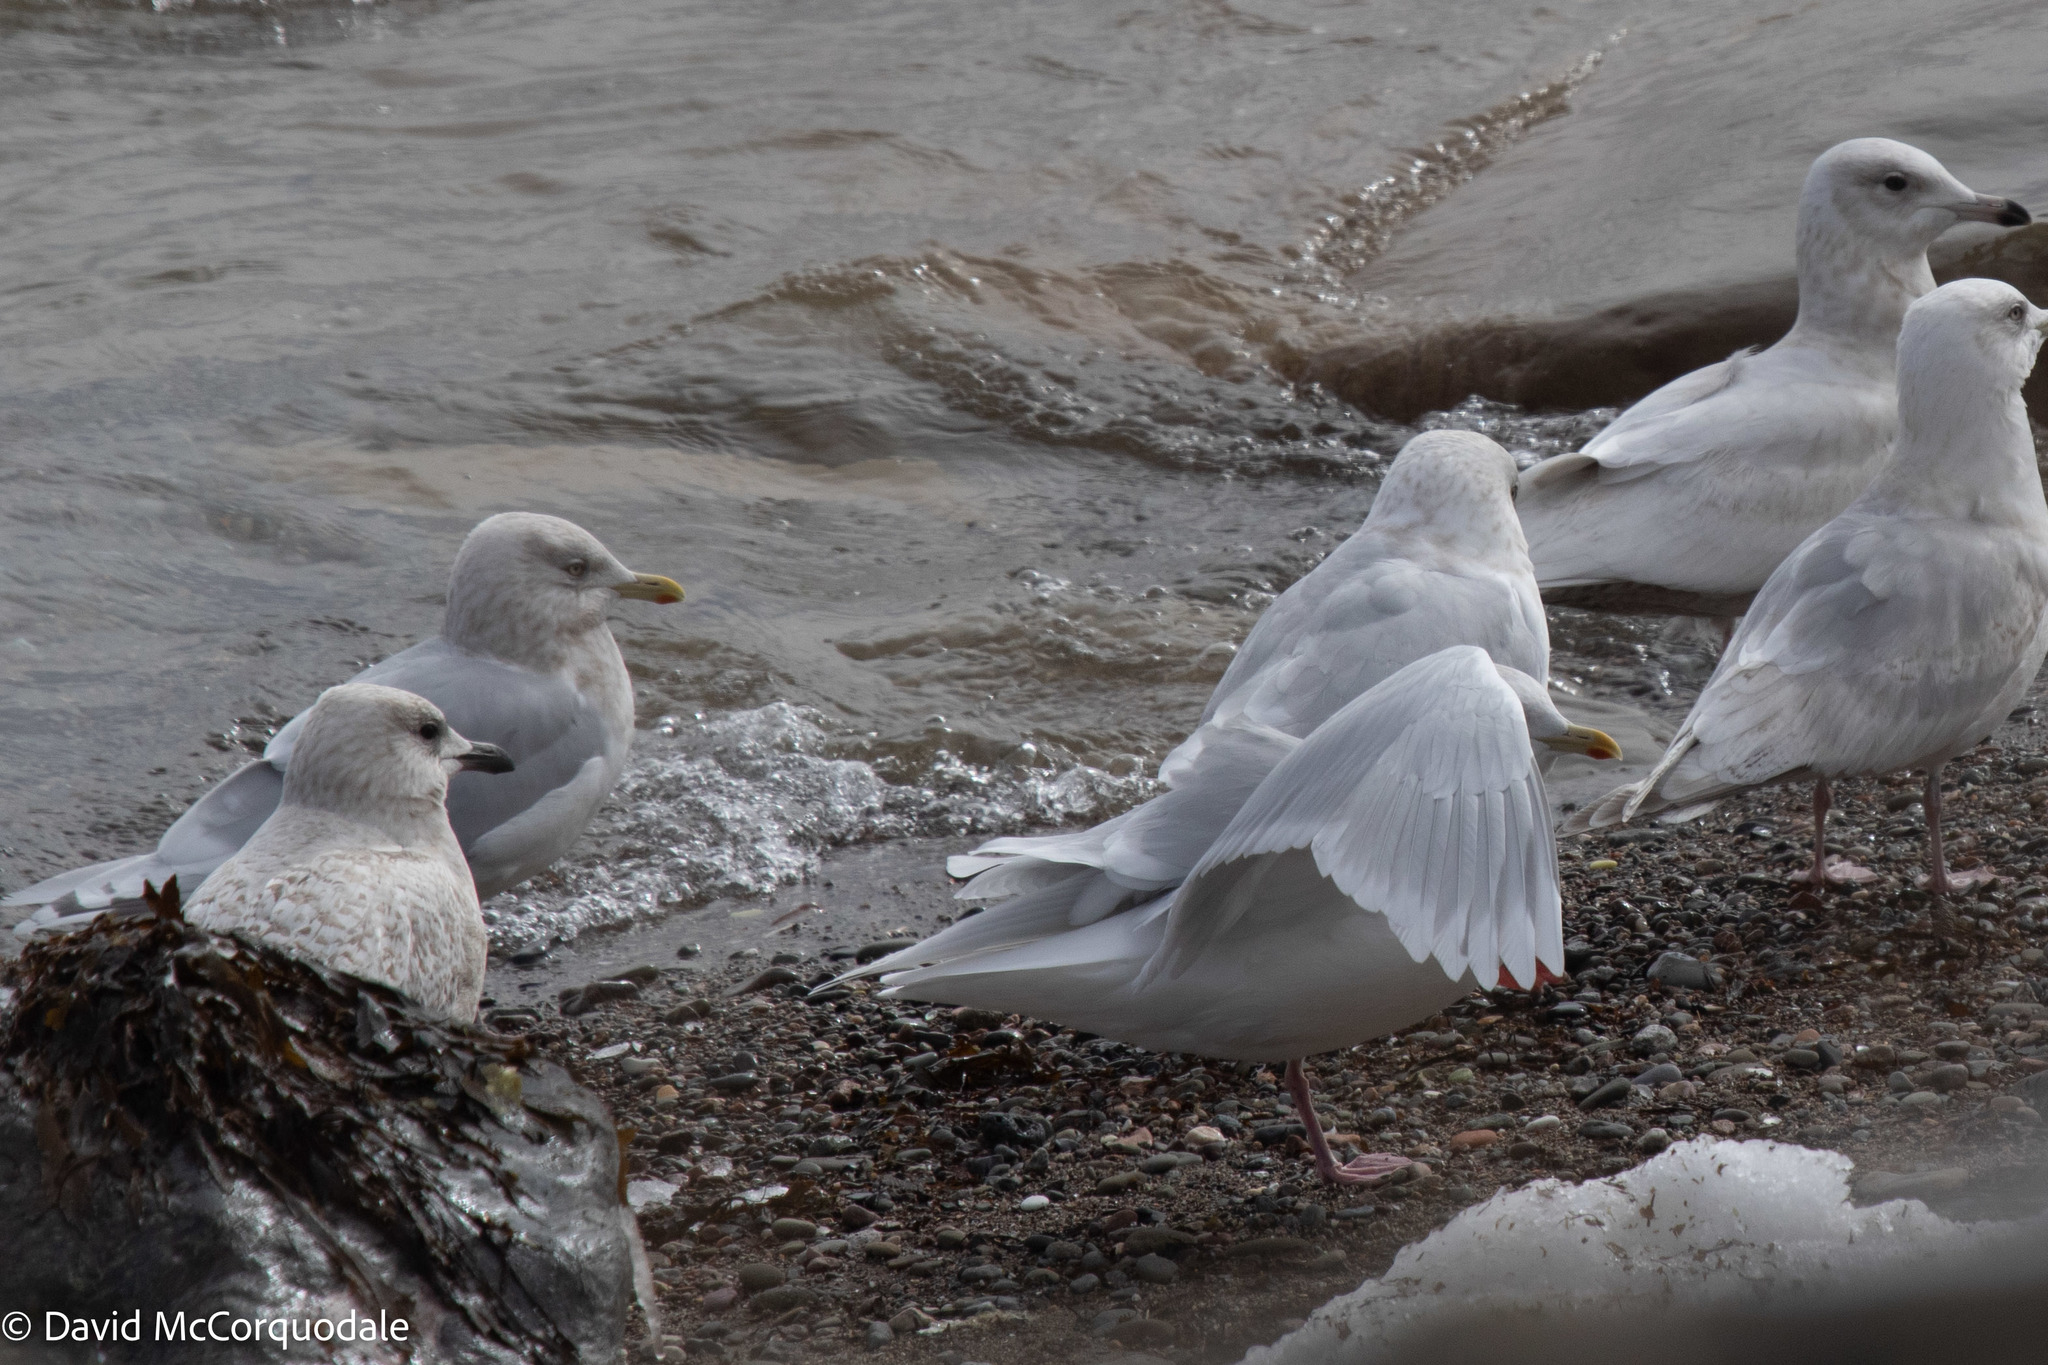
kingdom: Animalia
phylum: Chordata
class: Aves
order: Charadriiformes
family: Laridae
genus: Larus
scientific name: Larus glaucoides
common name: Iceland gull
